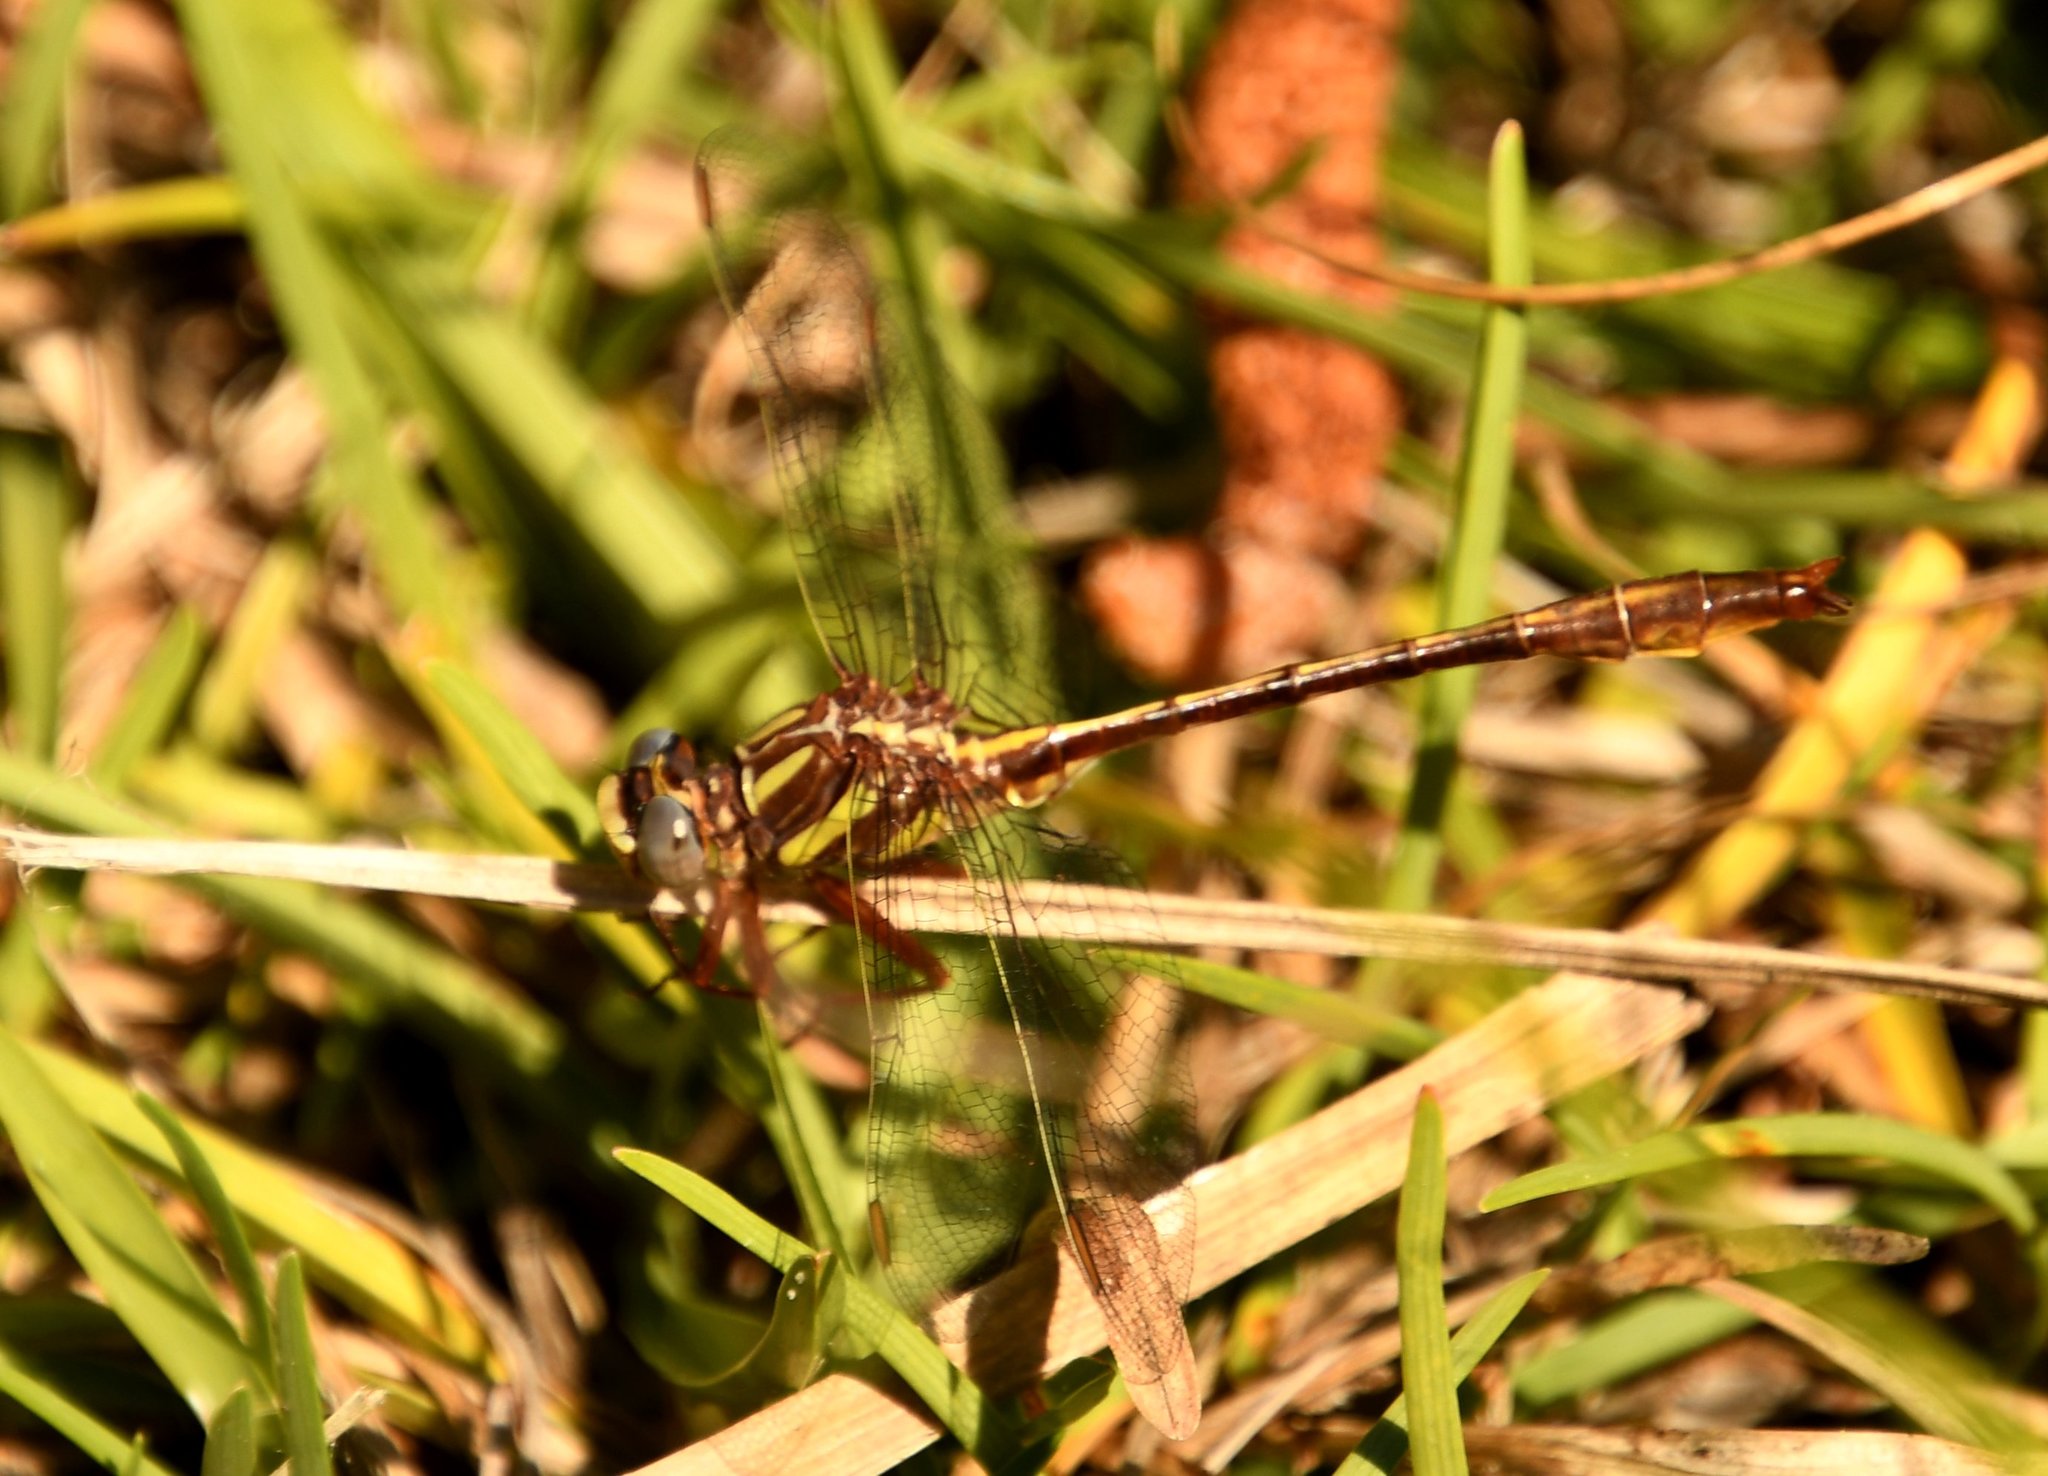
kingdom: Animalia
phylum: Arthropoda
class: Insecta
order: Odonata
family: Gomphidae
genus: Phanogomphus
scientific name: Phanogomphus minutus
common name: Cypress clubtail
